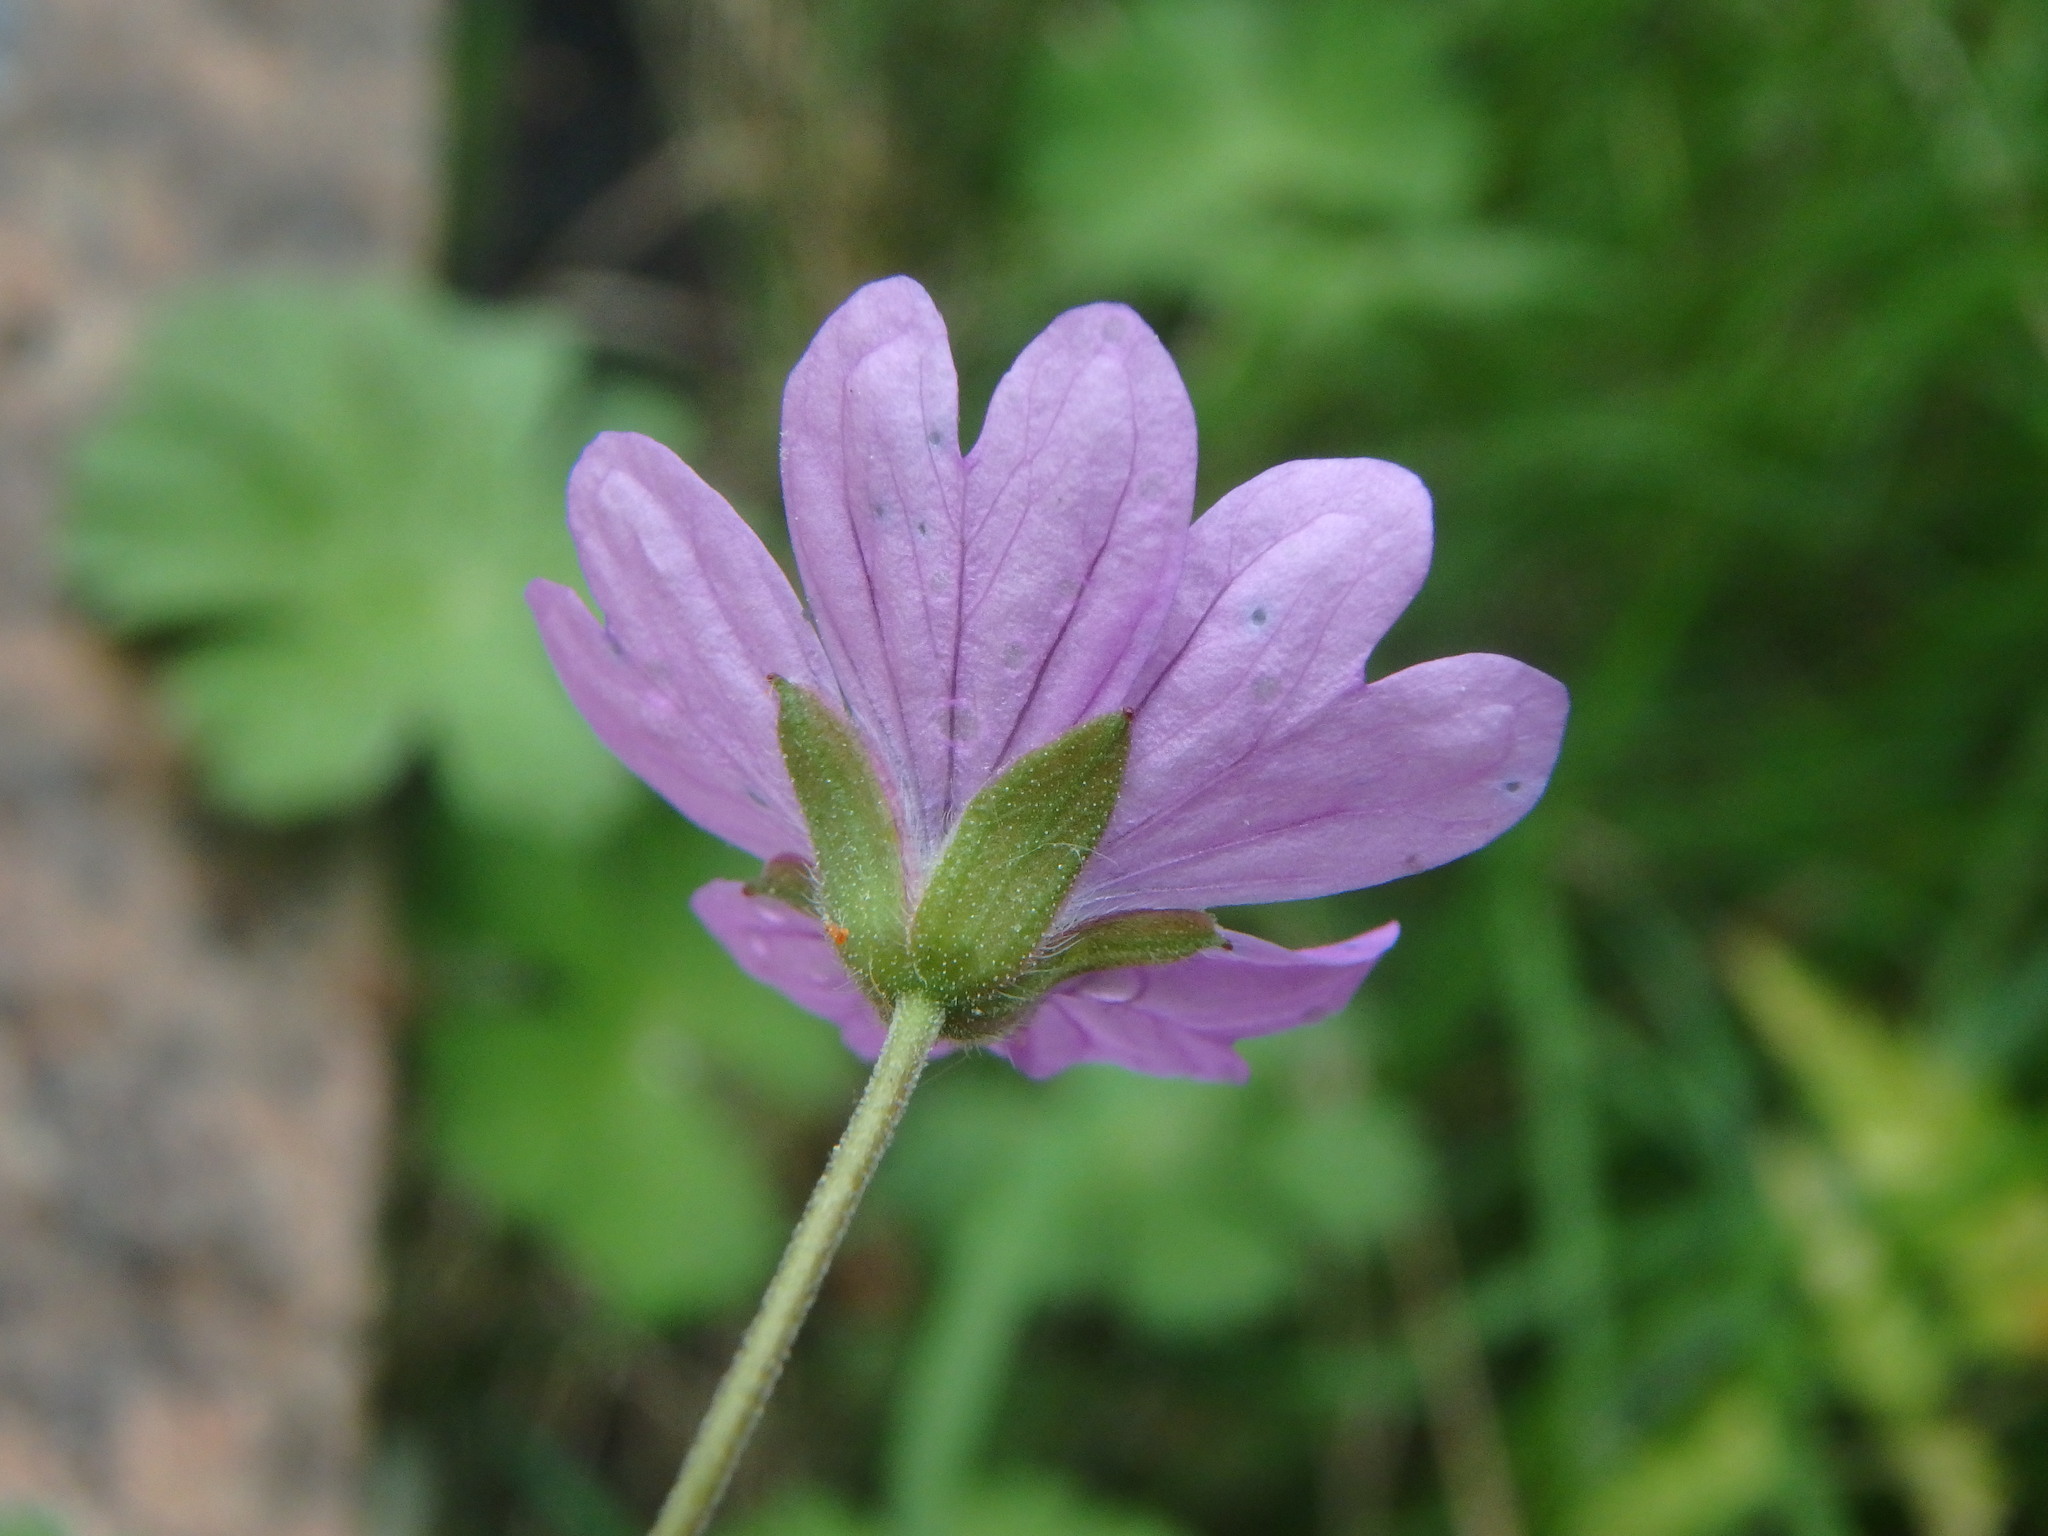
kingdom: Plantae
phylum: Tracheophyta
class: Magnoliopsida
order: Geraniales
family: Geraniaceae
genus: Geranium
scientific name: Geranium pyrenaicum
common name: Hedgerow crane's-bill
